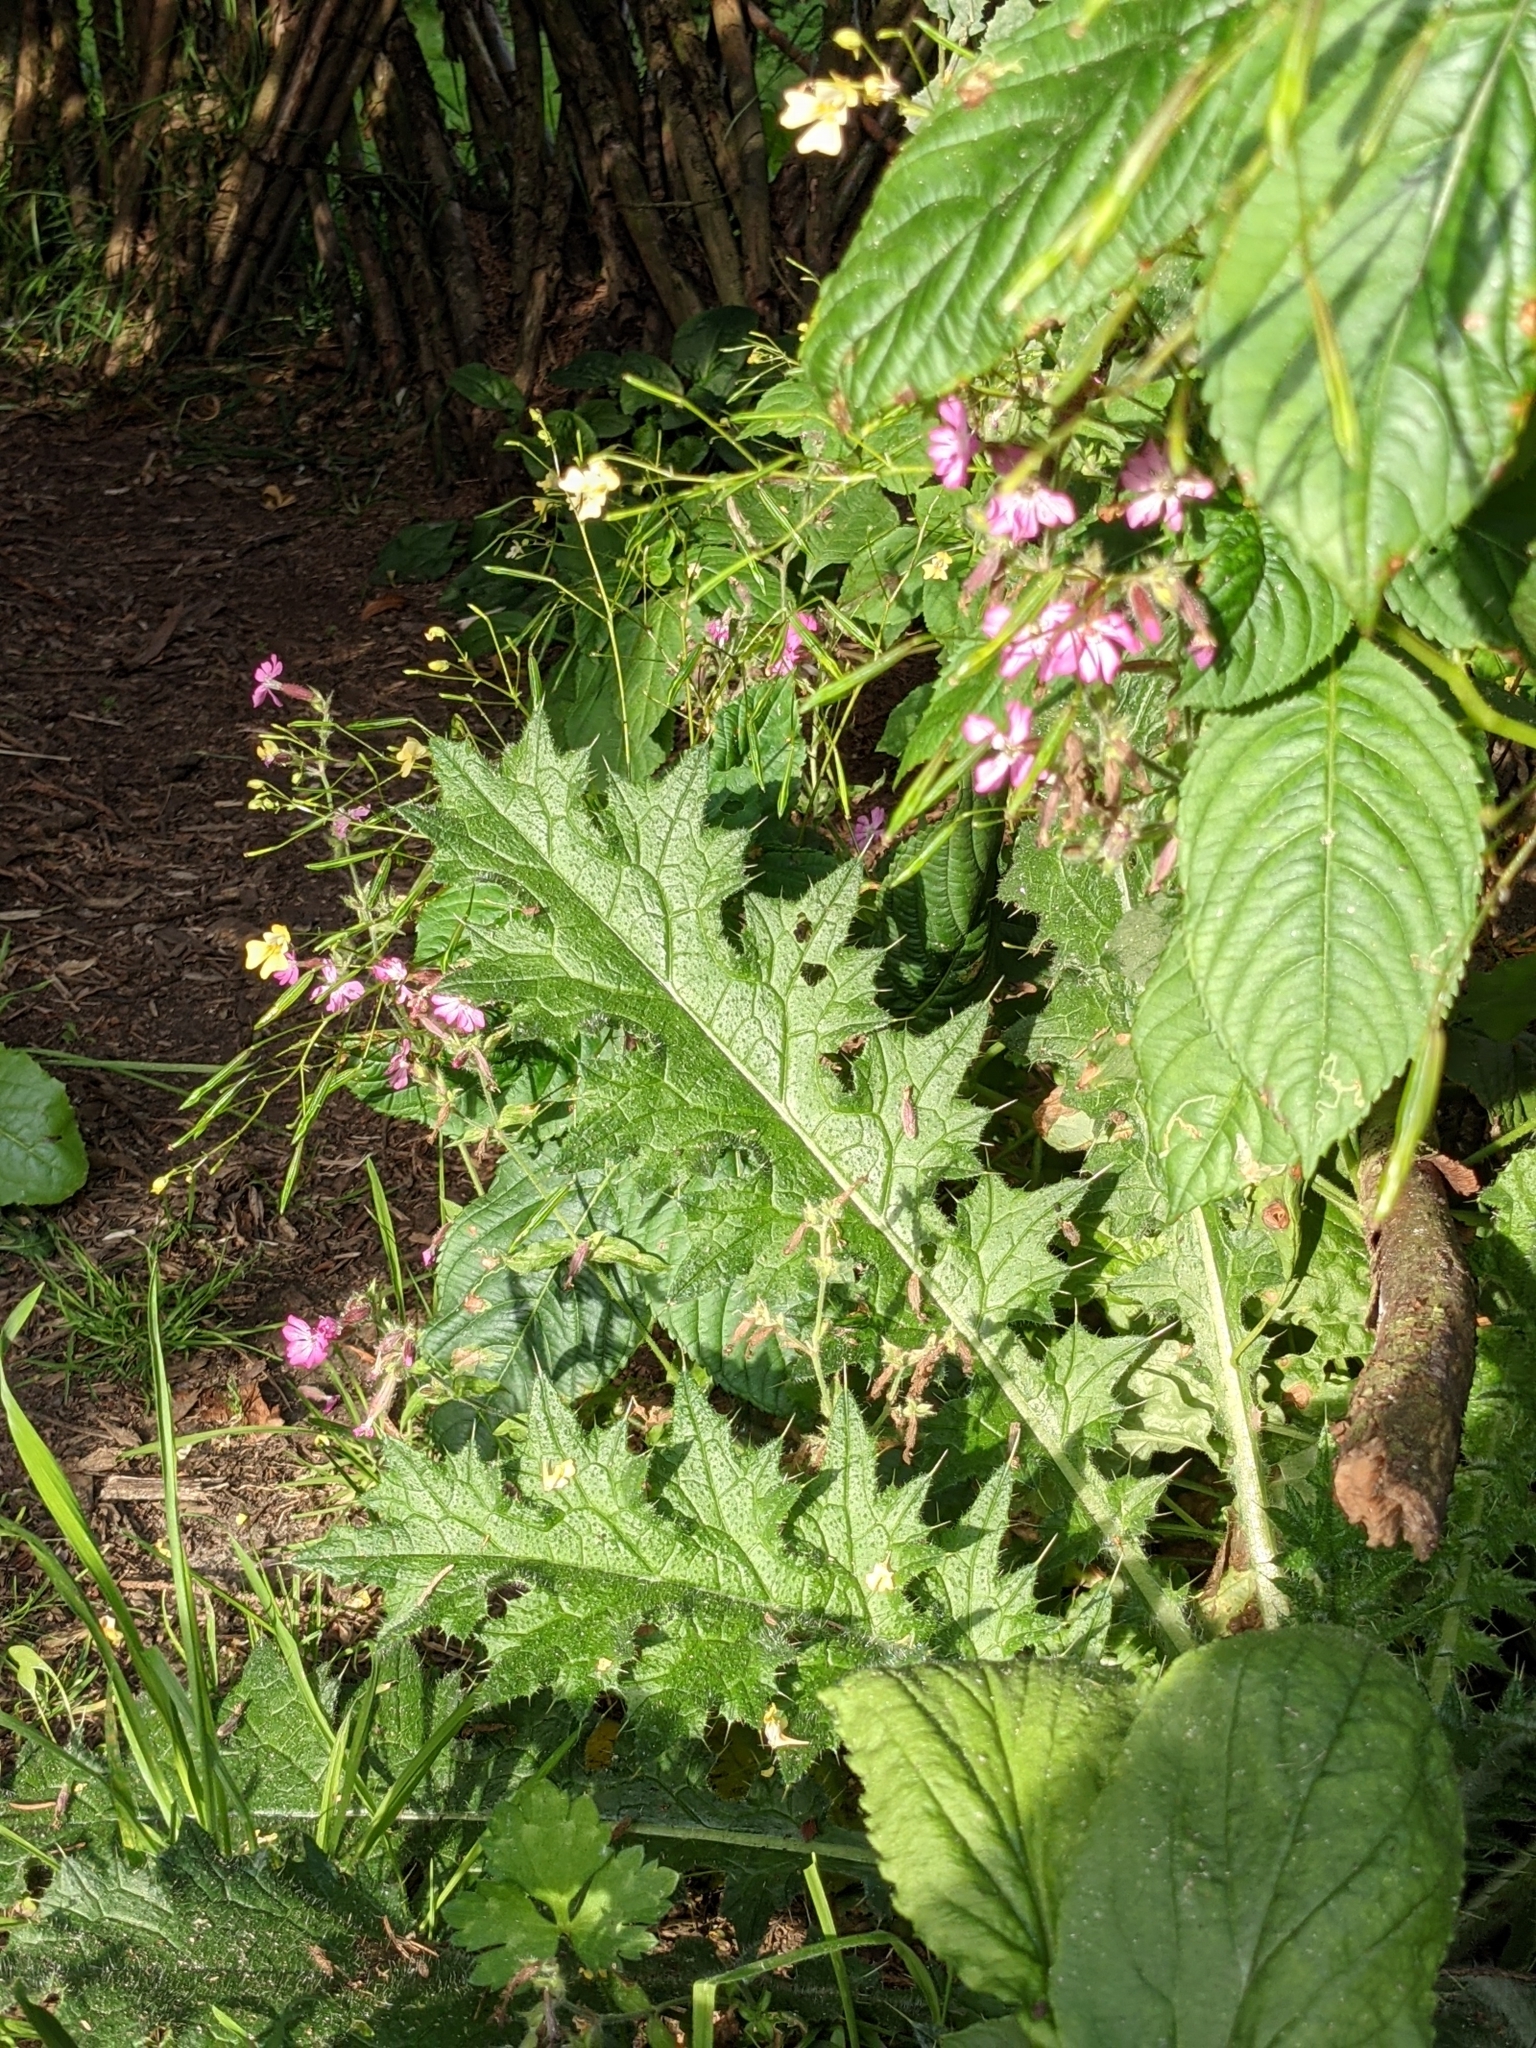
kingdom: Plantae
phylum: Tracheophyta
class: Magnoliopsida
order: Asterales
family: Asteraceae
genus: Cirsium
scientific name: Cirsium vulgare
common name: Bull thistle
